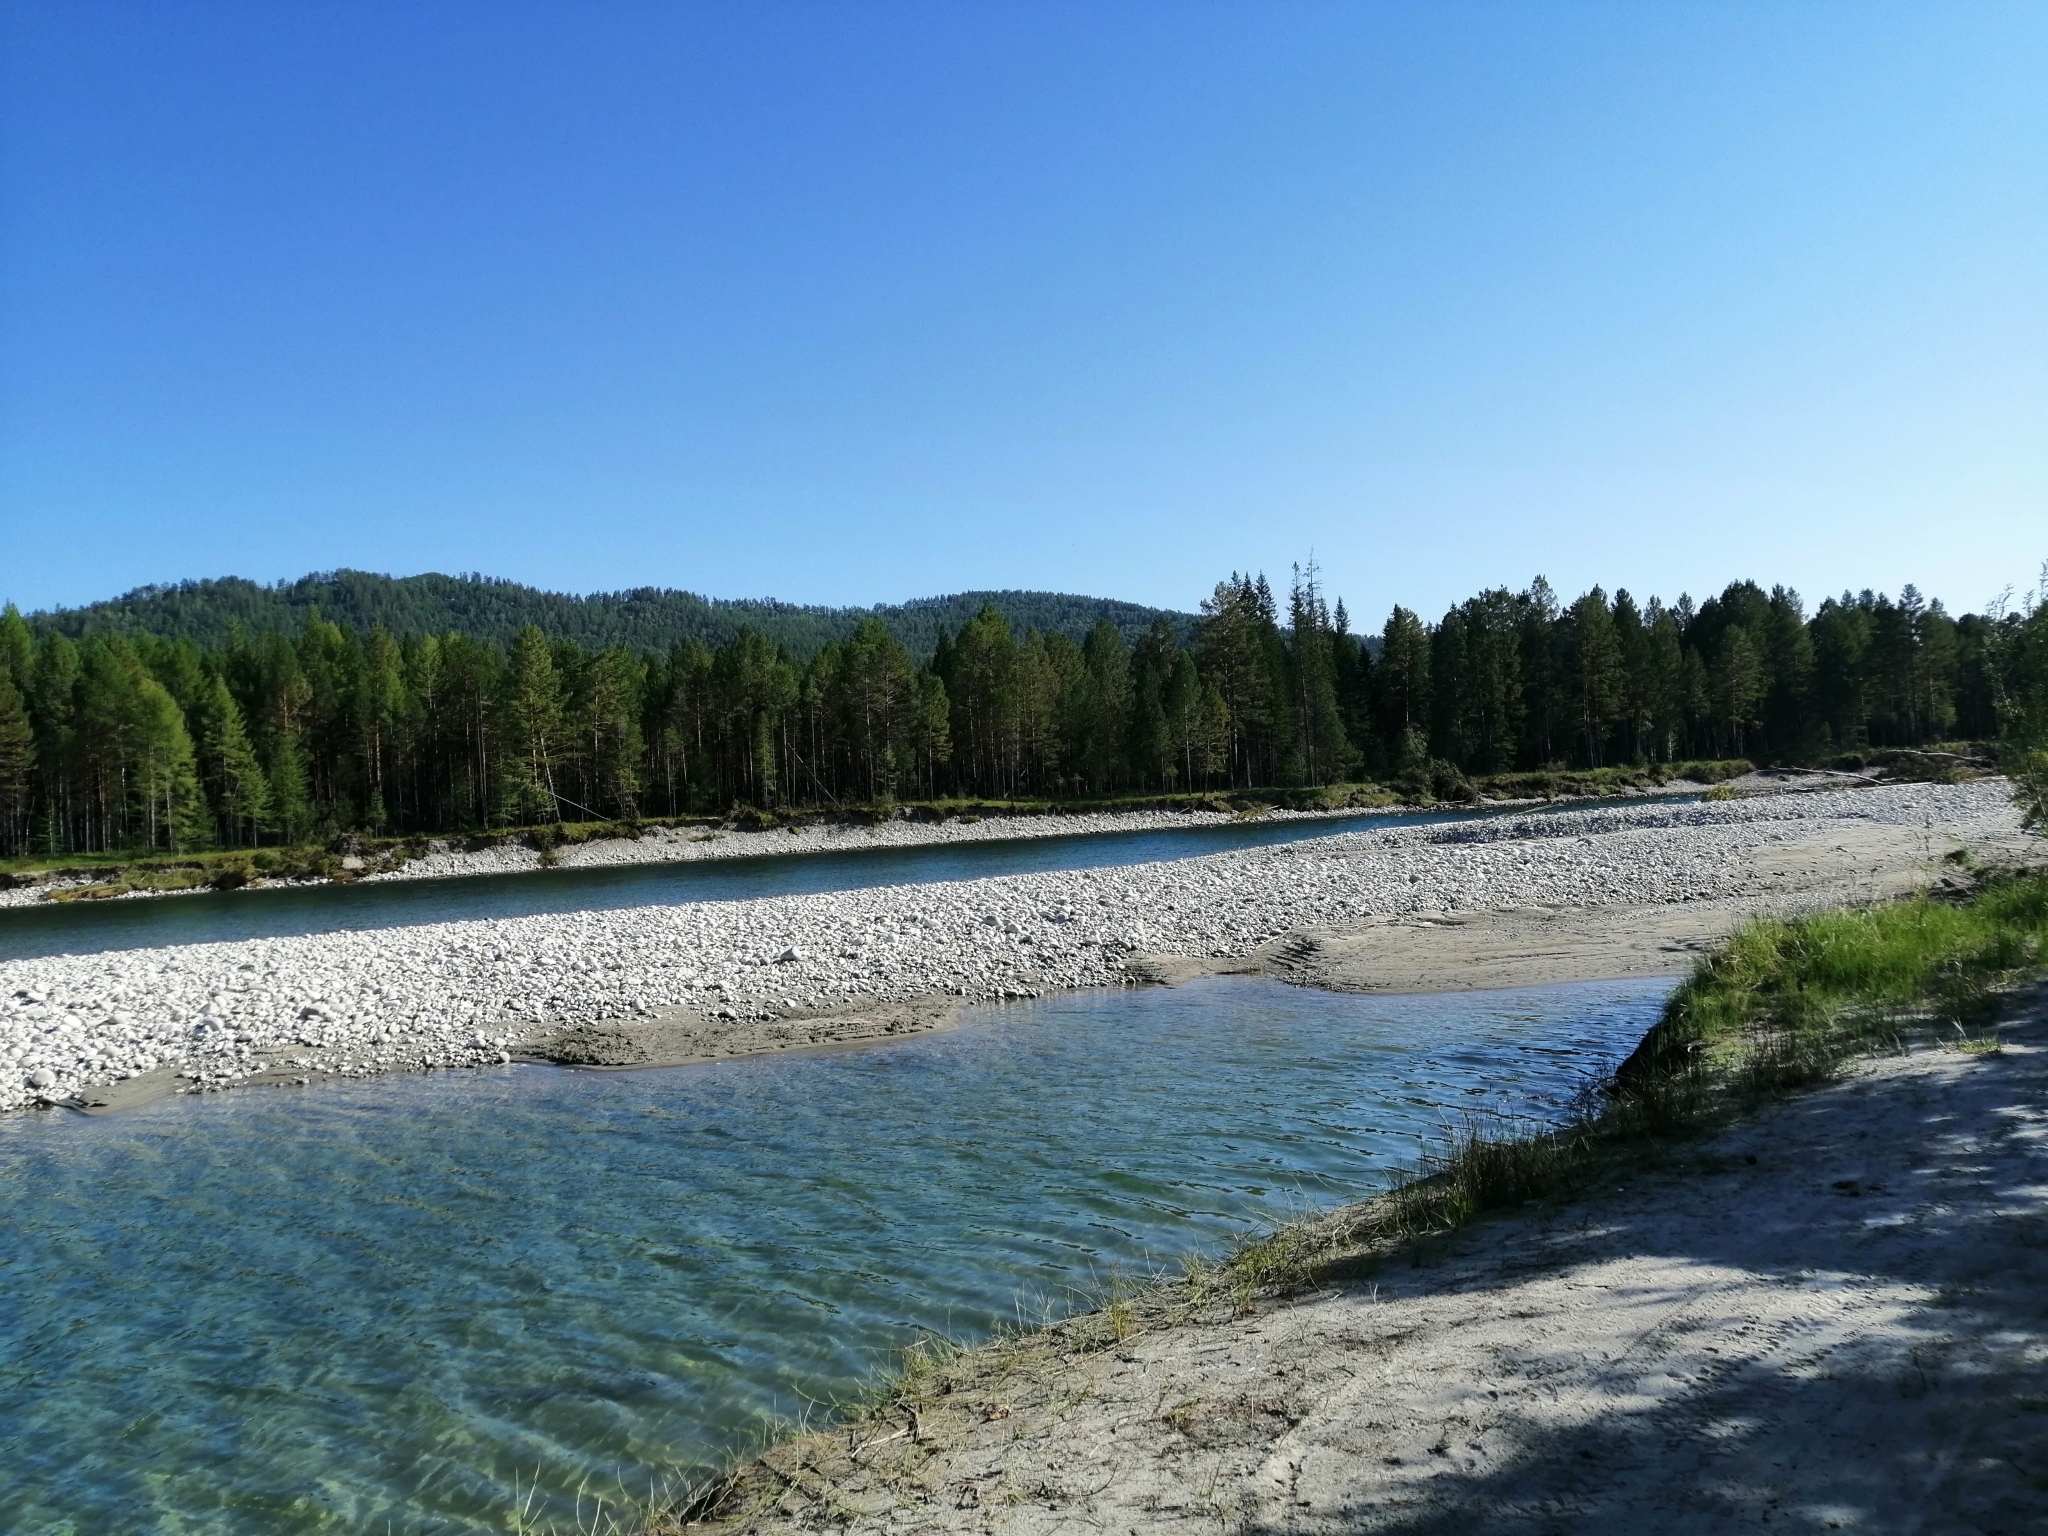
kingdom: Plantae
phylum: Tracheophyta
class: Pinopsida
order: Pinales
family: Pinaceae
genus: Pinus
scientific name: Pinus sylvestris
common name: Scots pine
